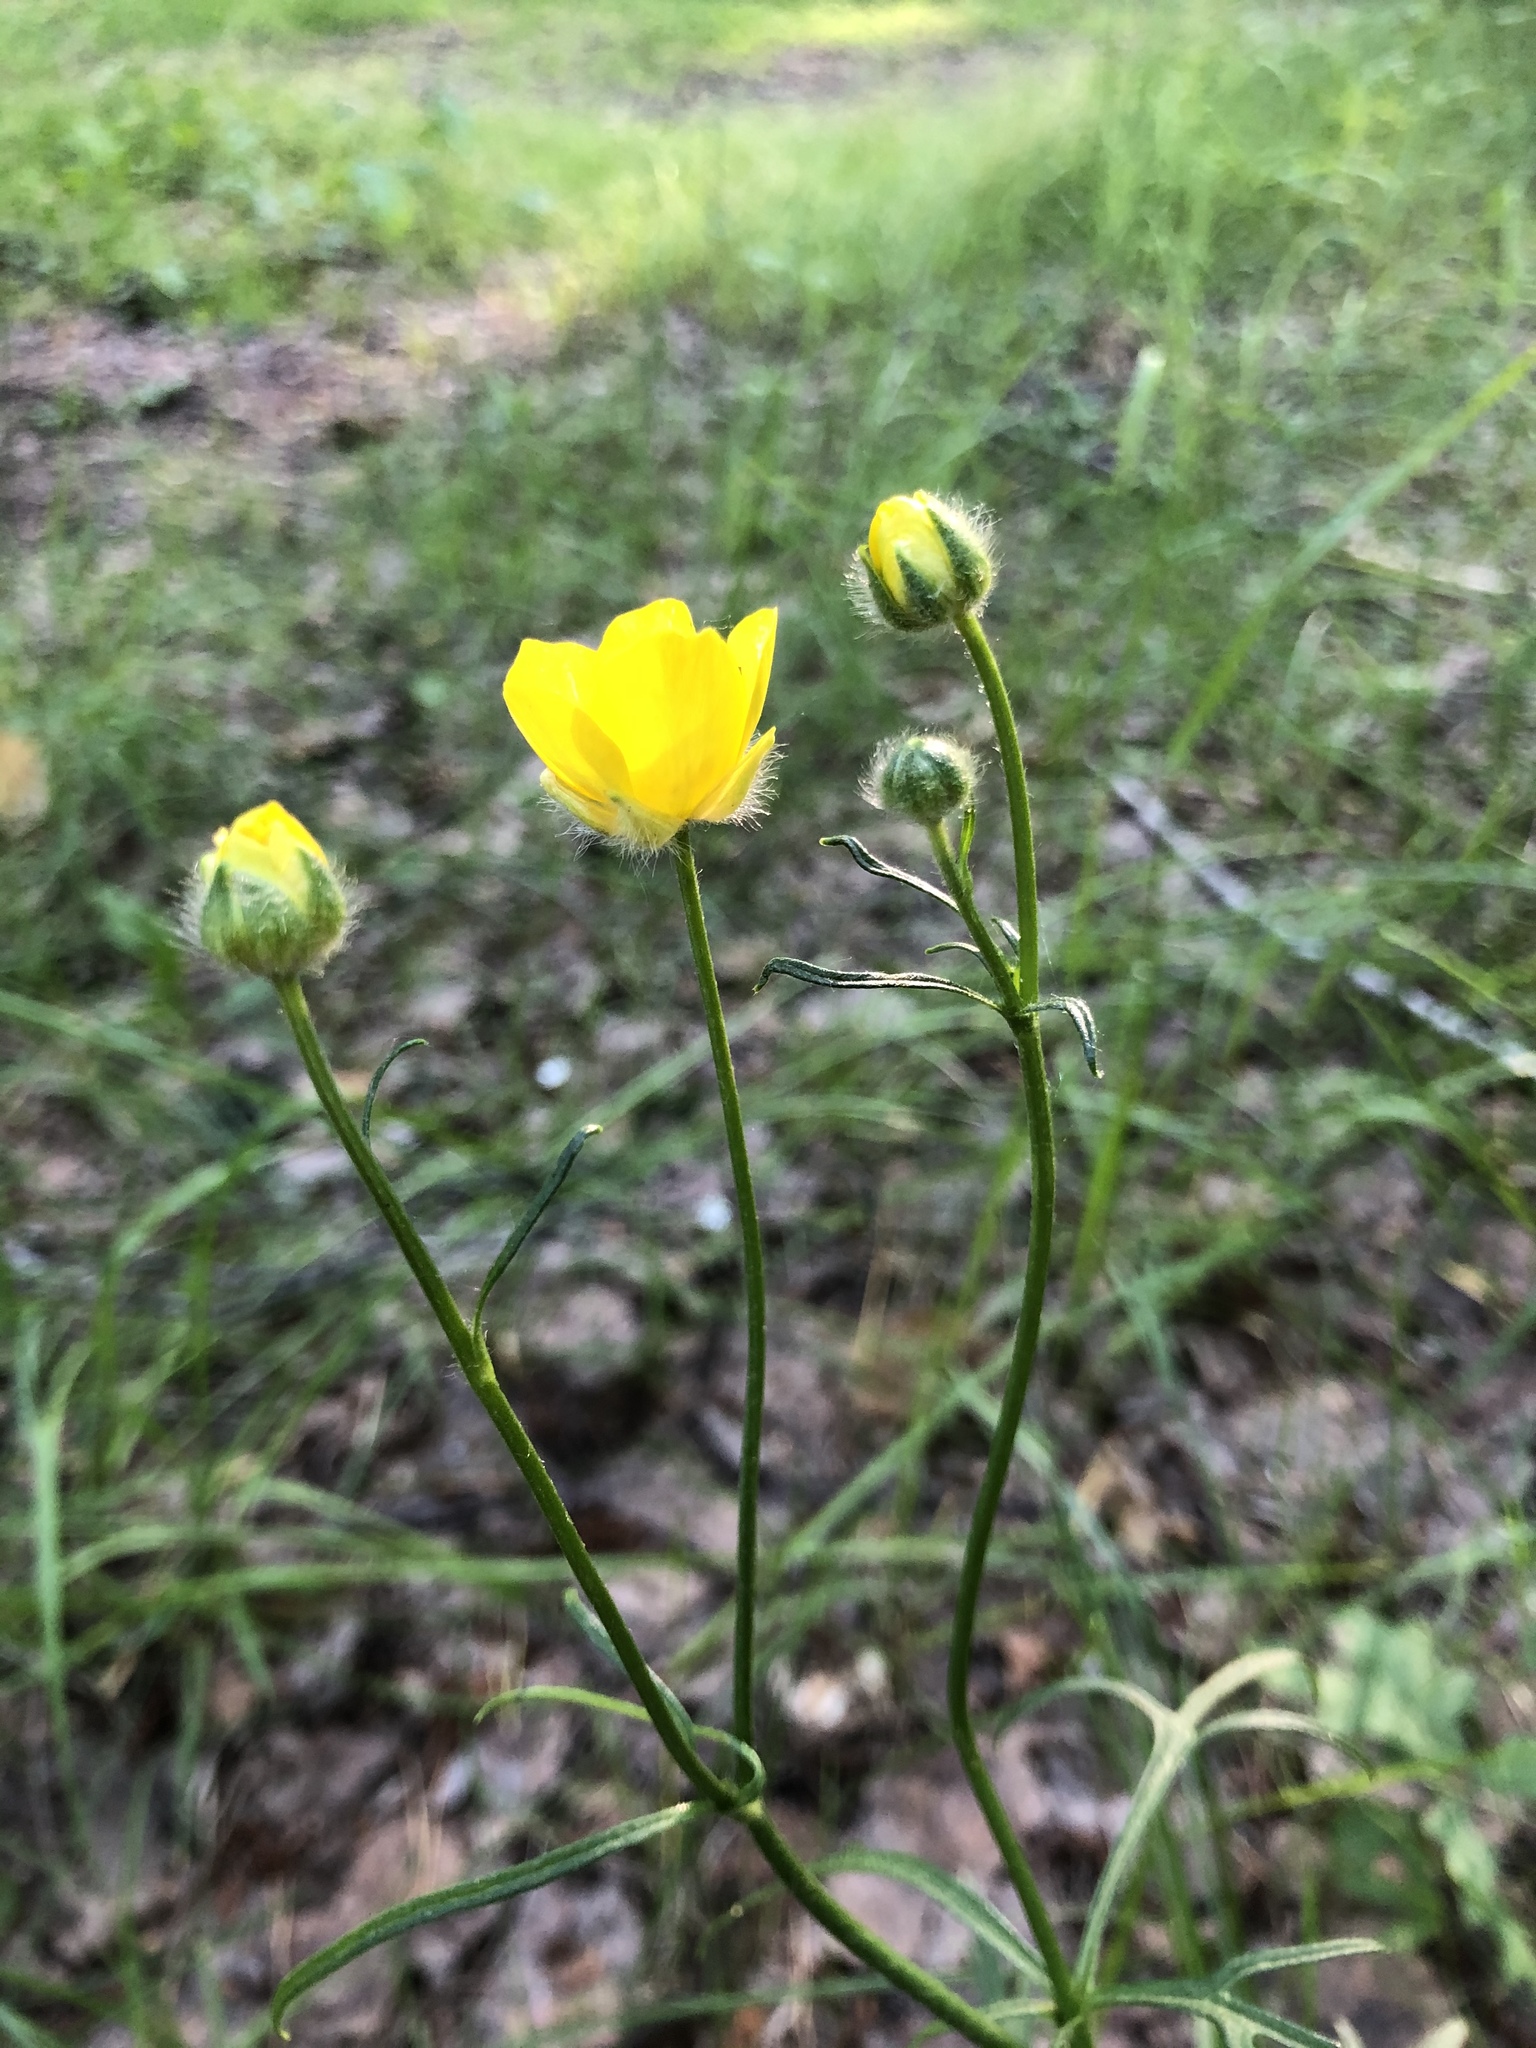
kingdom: Plantae
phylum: Tracheophyta
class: Magnoliopsida
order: Ranunculales
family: Ranunculaceae
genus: Ranunculus
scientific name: Ranunculus polyanthemos
